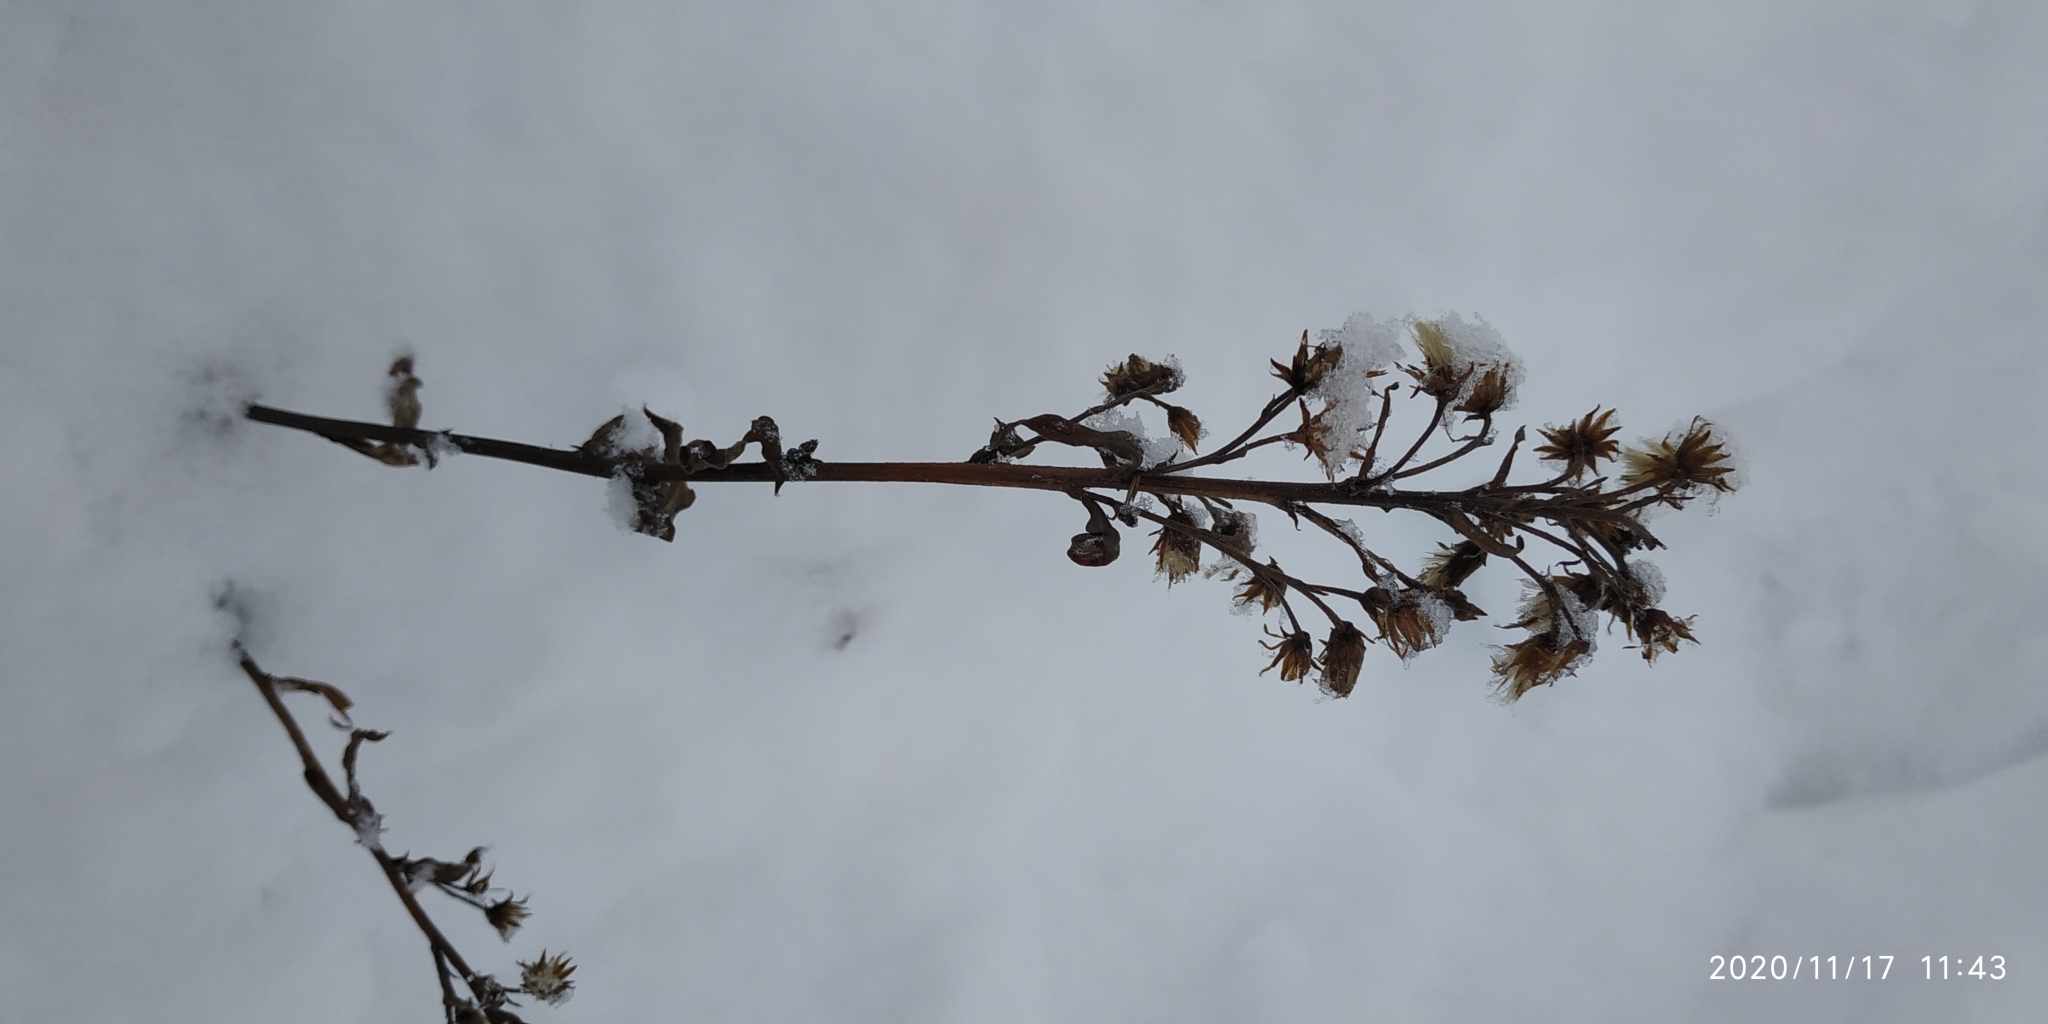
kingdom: Plantae
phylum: Tracheophyta
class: Magnoliopsida
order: Asterales
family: Asteraceae
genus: Solidago
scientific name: Solidago virgaurea
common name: Goldenrod
